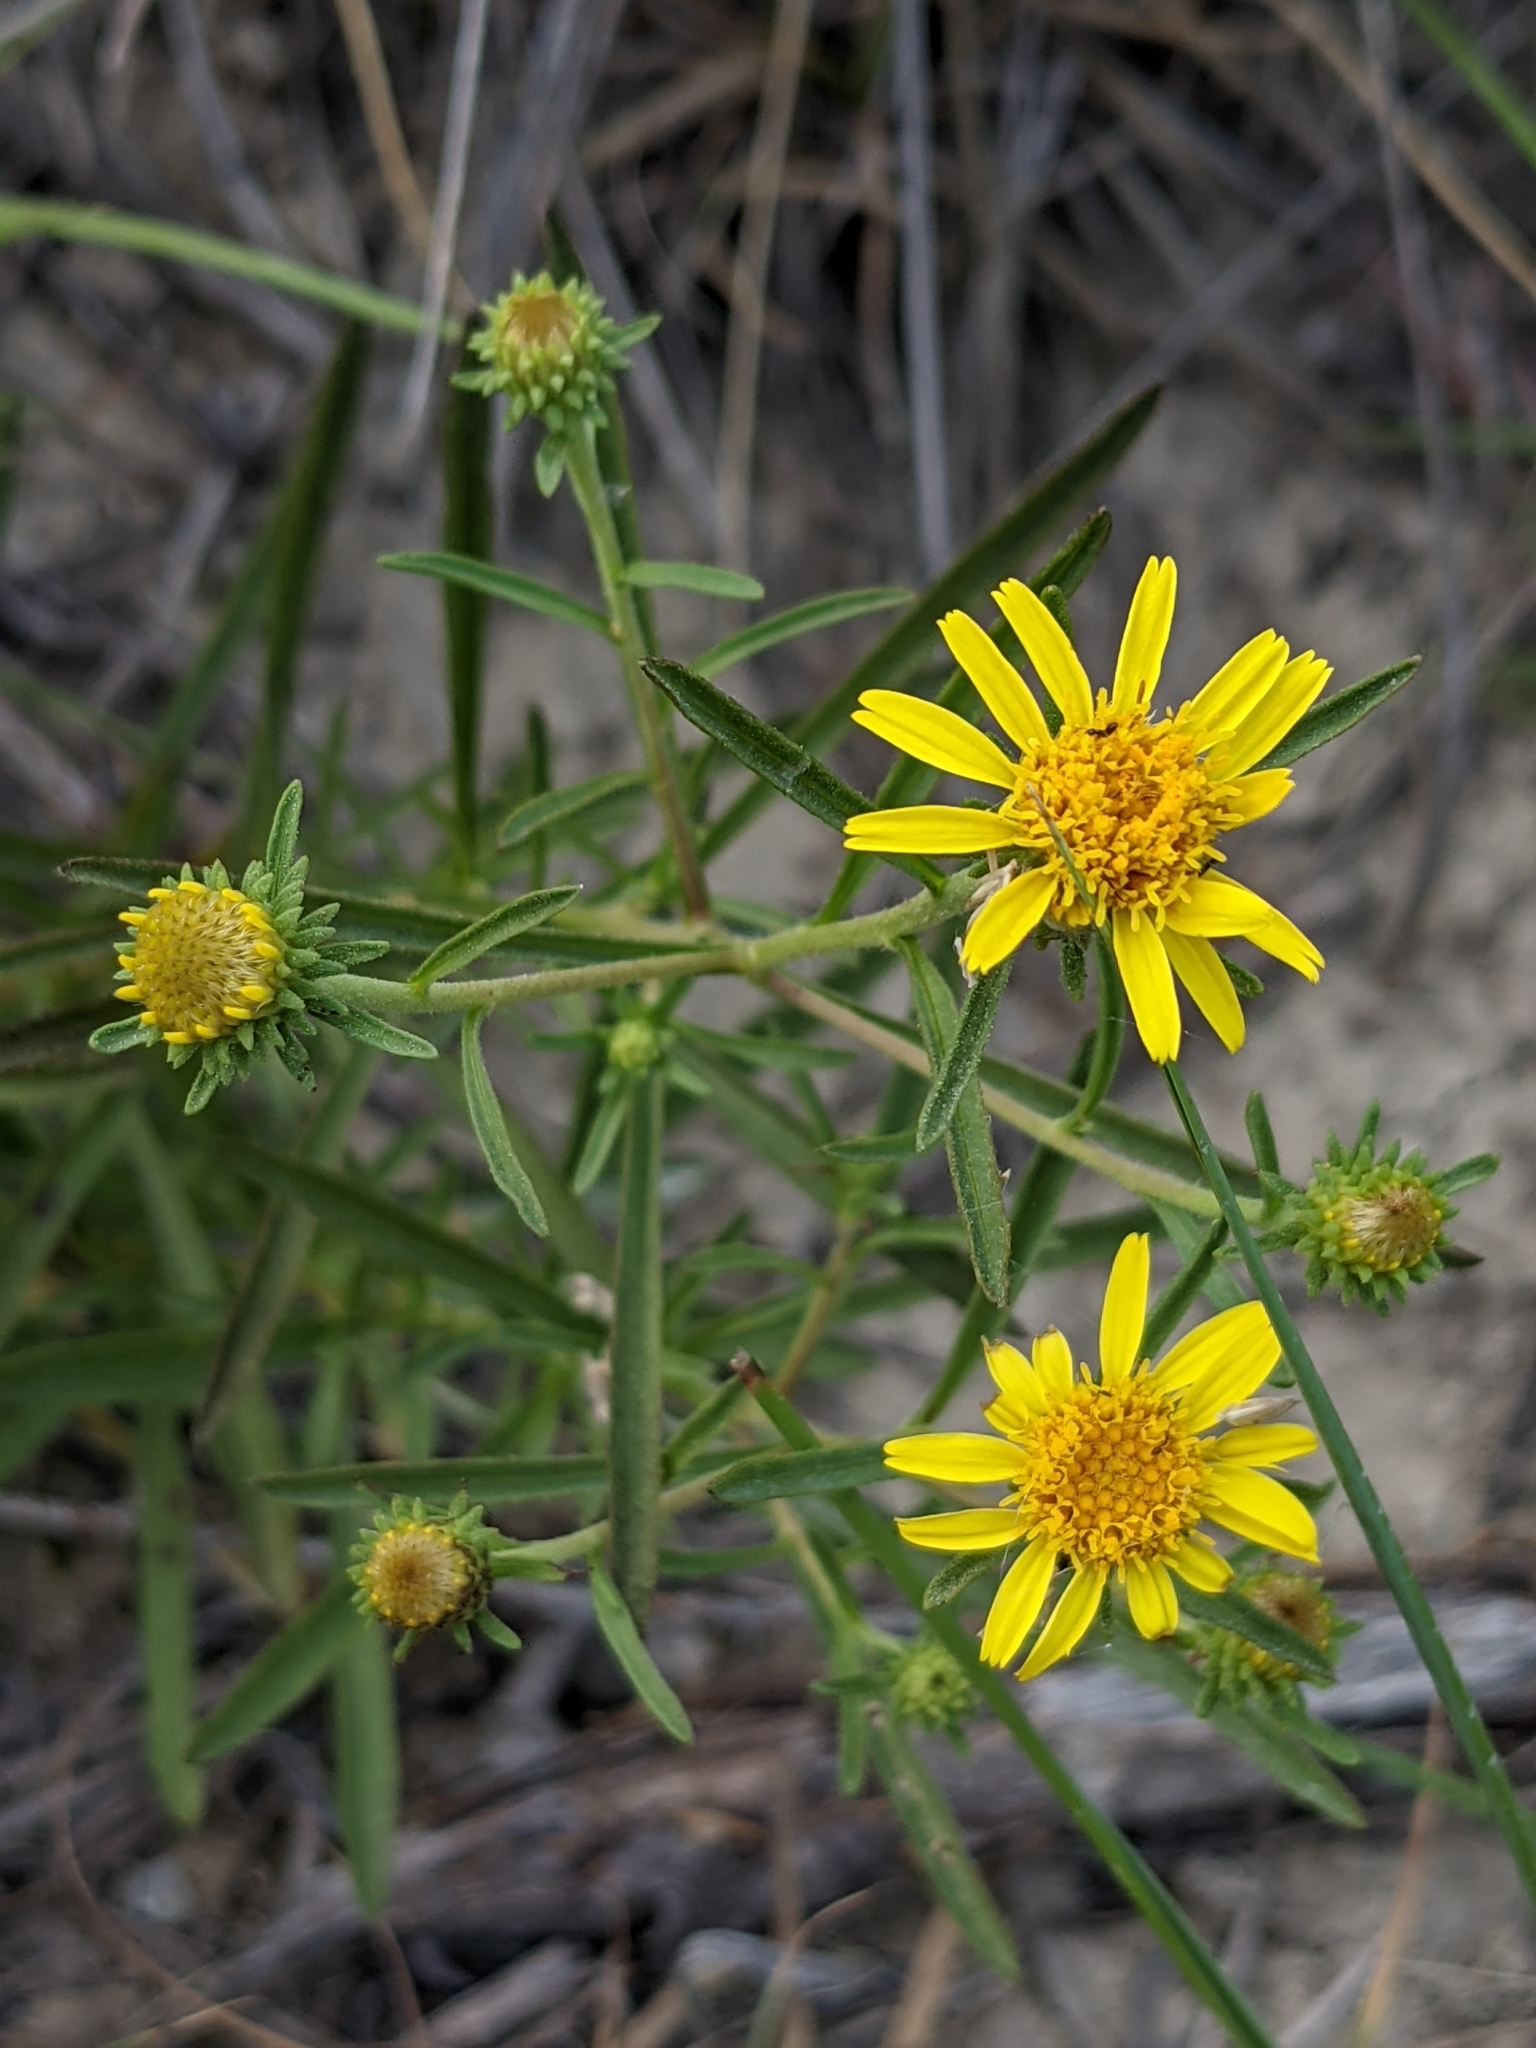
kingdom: Plantae
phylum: Tracheophyta
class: Magnoliopsida
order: Asterales
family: Asteraceae
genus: Jasonia
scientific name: Jasonia tuberosa
